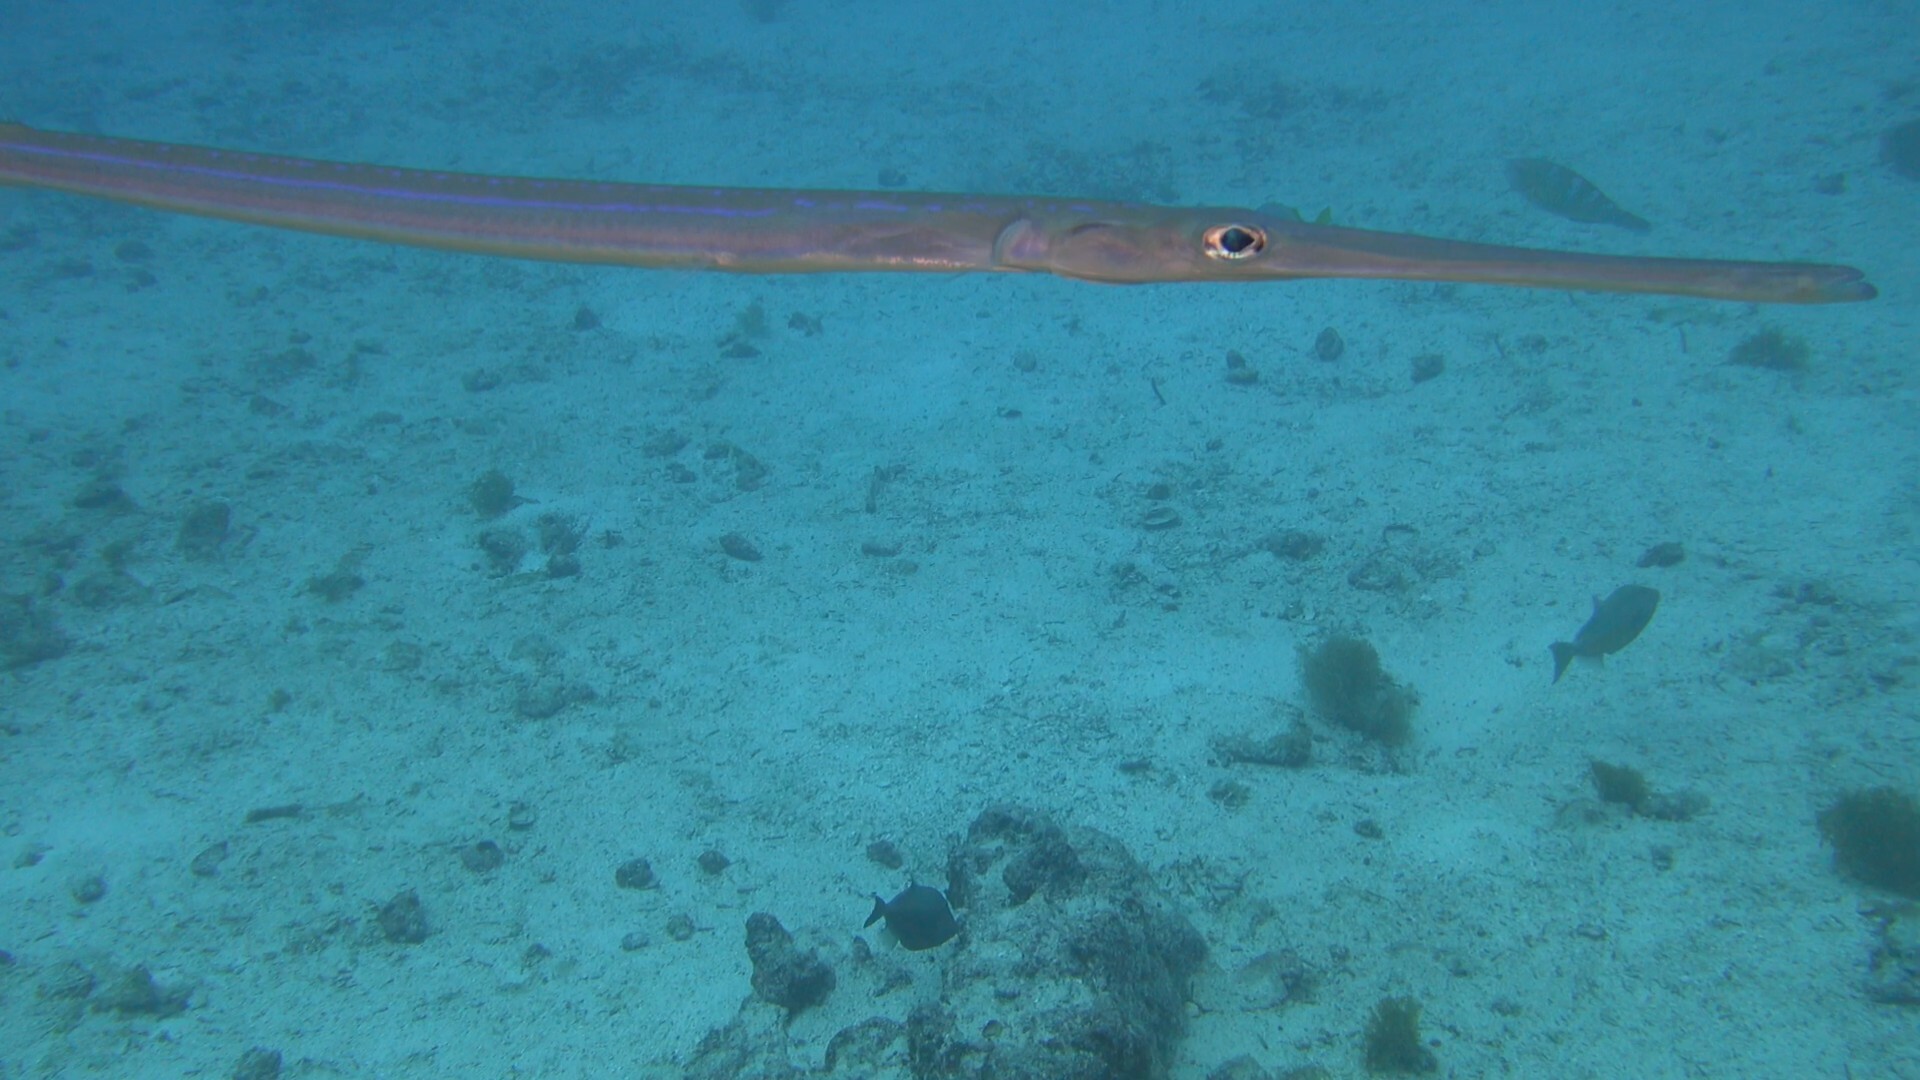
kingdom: Animalia
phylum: Chordata
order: Syngnathiformes
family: Fistulariidae
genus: Fistularia
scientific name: Fistularia commersonii
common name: Bluespotted cornetfish
